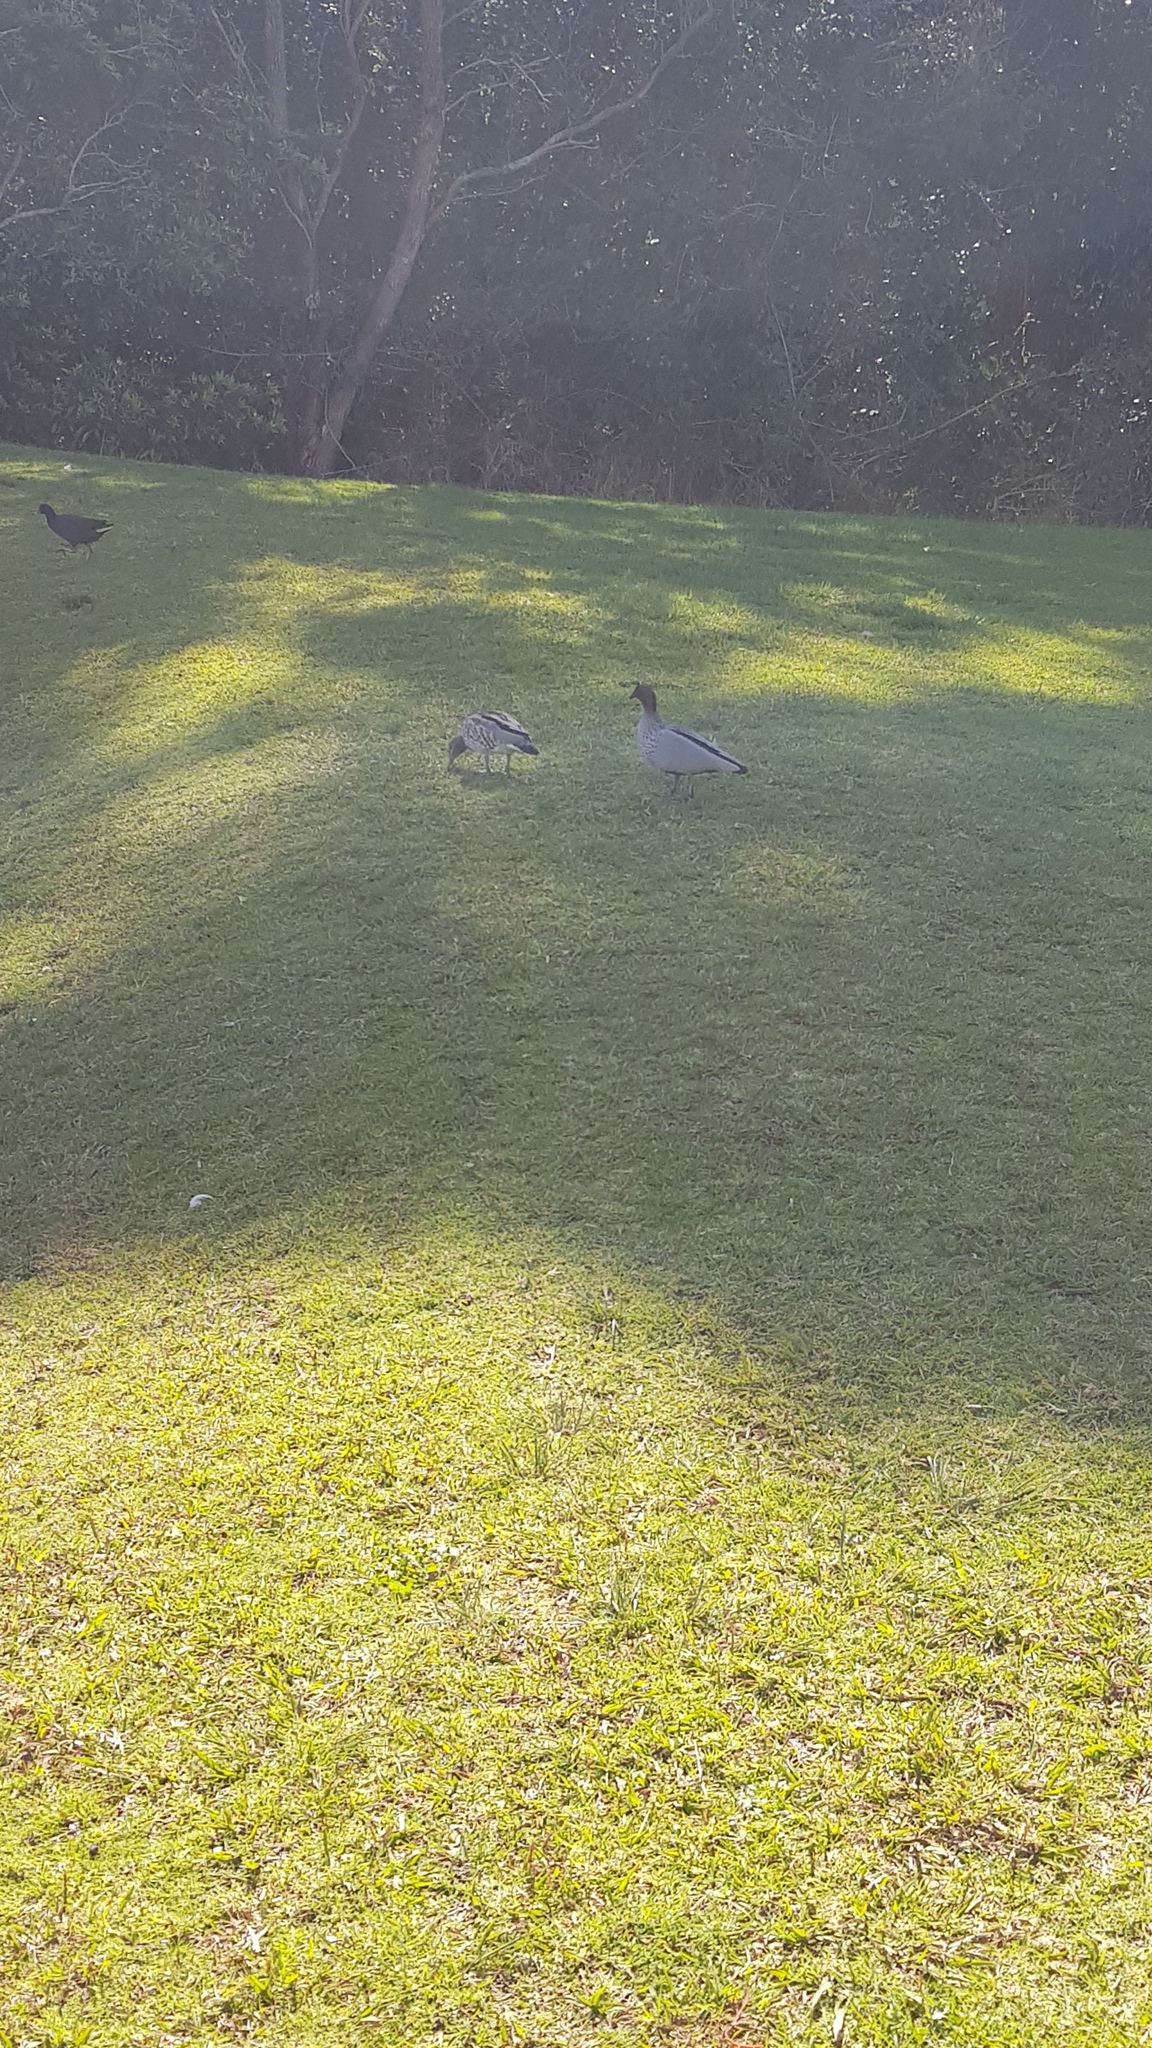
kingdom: Animalia
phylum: Chordata
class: Aves
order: Anseriformes
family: Anatidae
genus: Chenonetta
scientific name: Chenonetta jubata
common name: Maned duck
